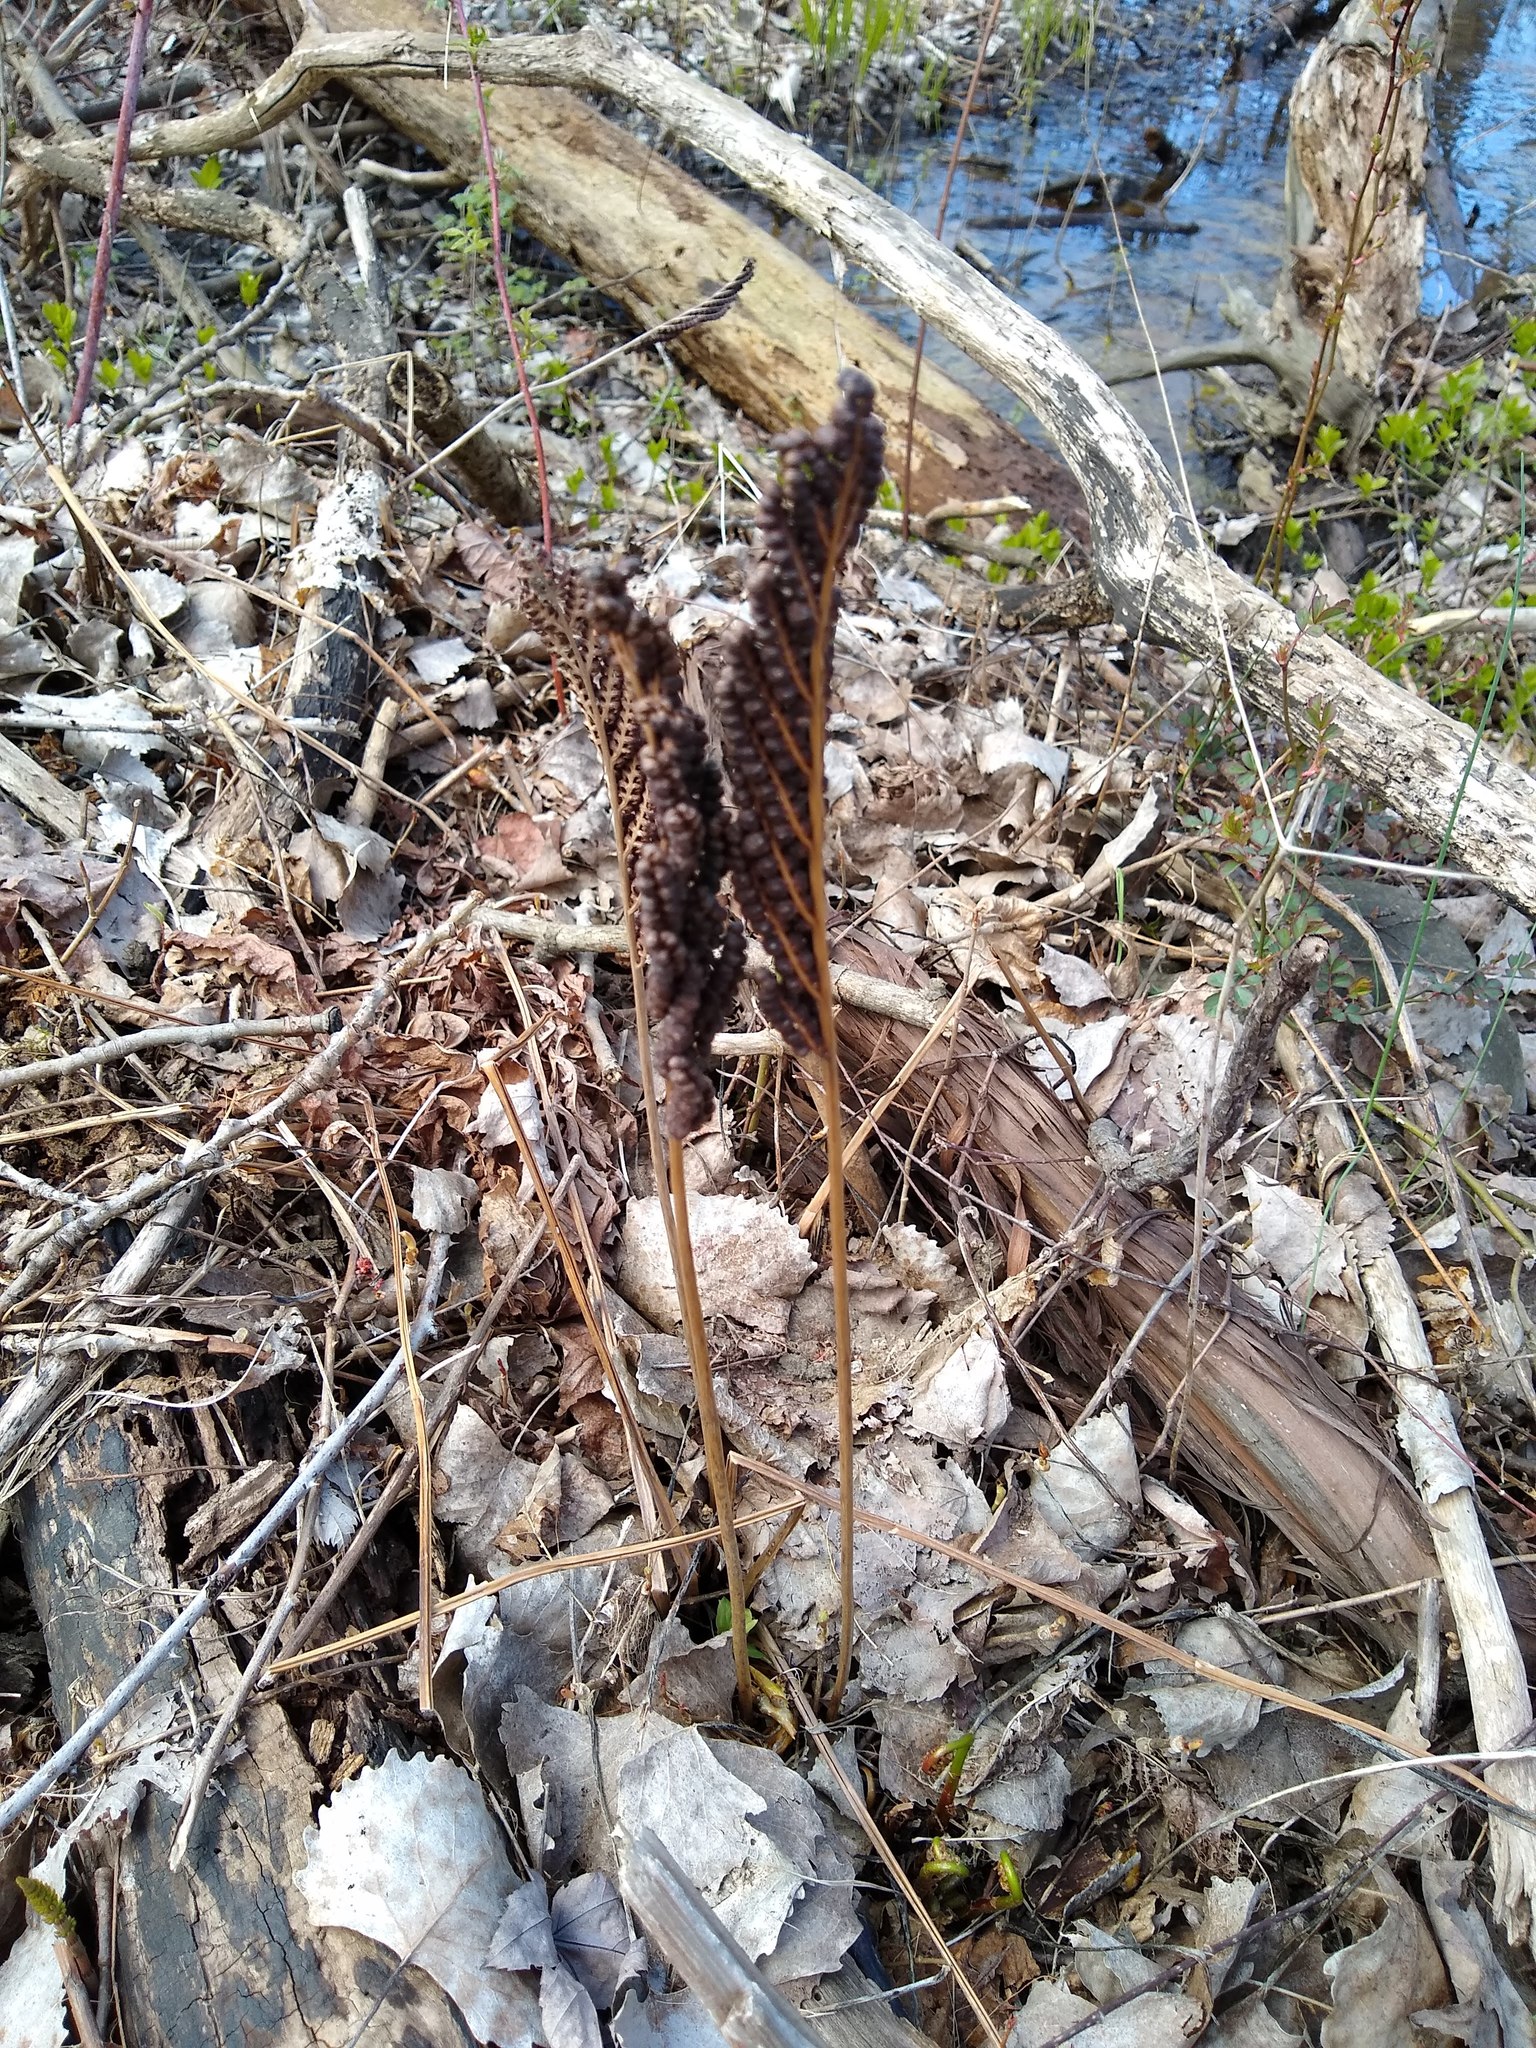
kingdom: Plantae
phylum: Tracheophyta
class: Polypodiopsida
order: Polypodiales
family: Onocleaceae
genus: Onoclea
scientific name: Onoclea sensibilis
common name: Sensitive fern
